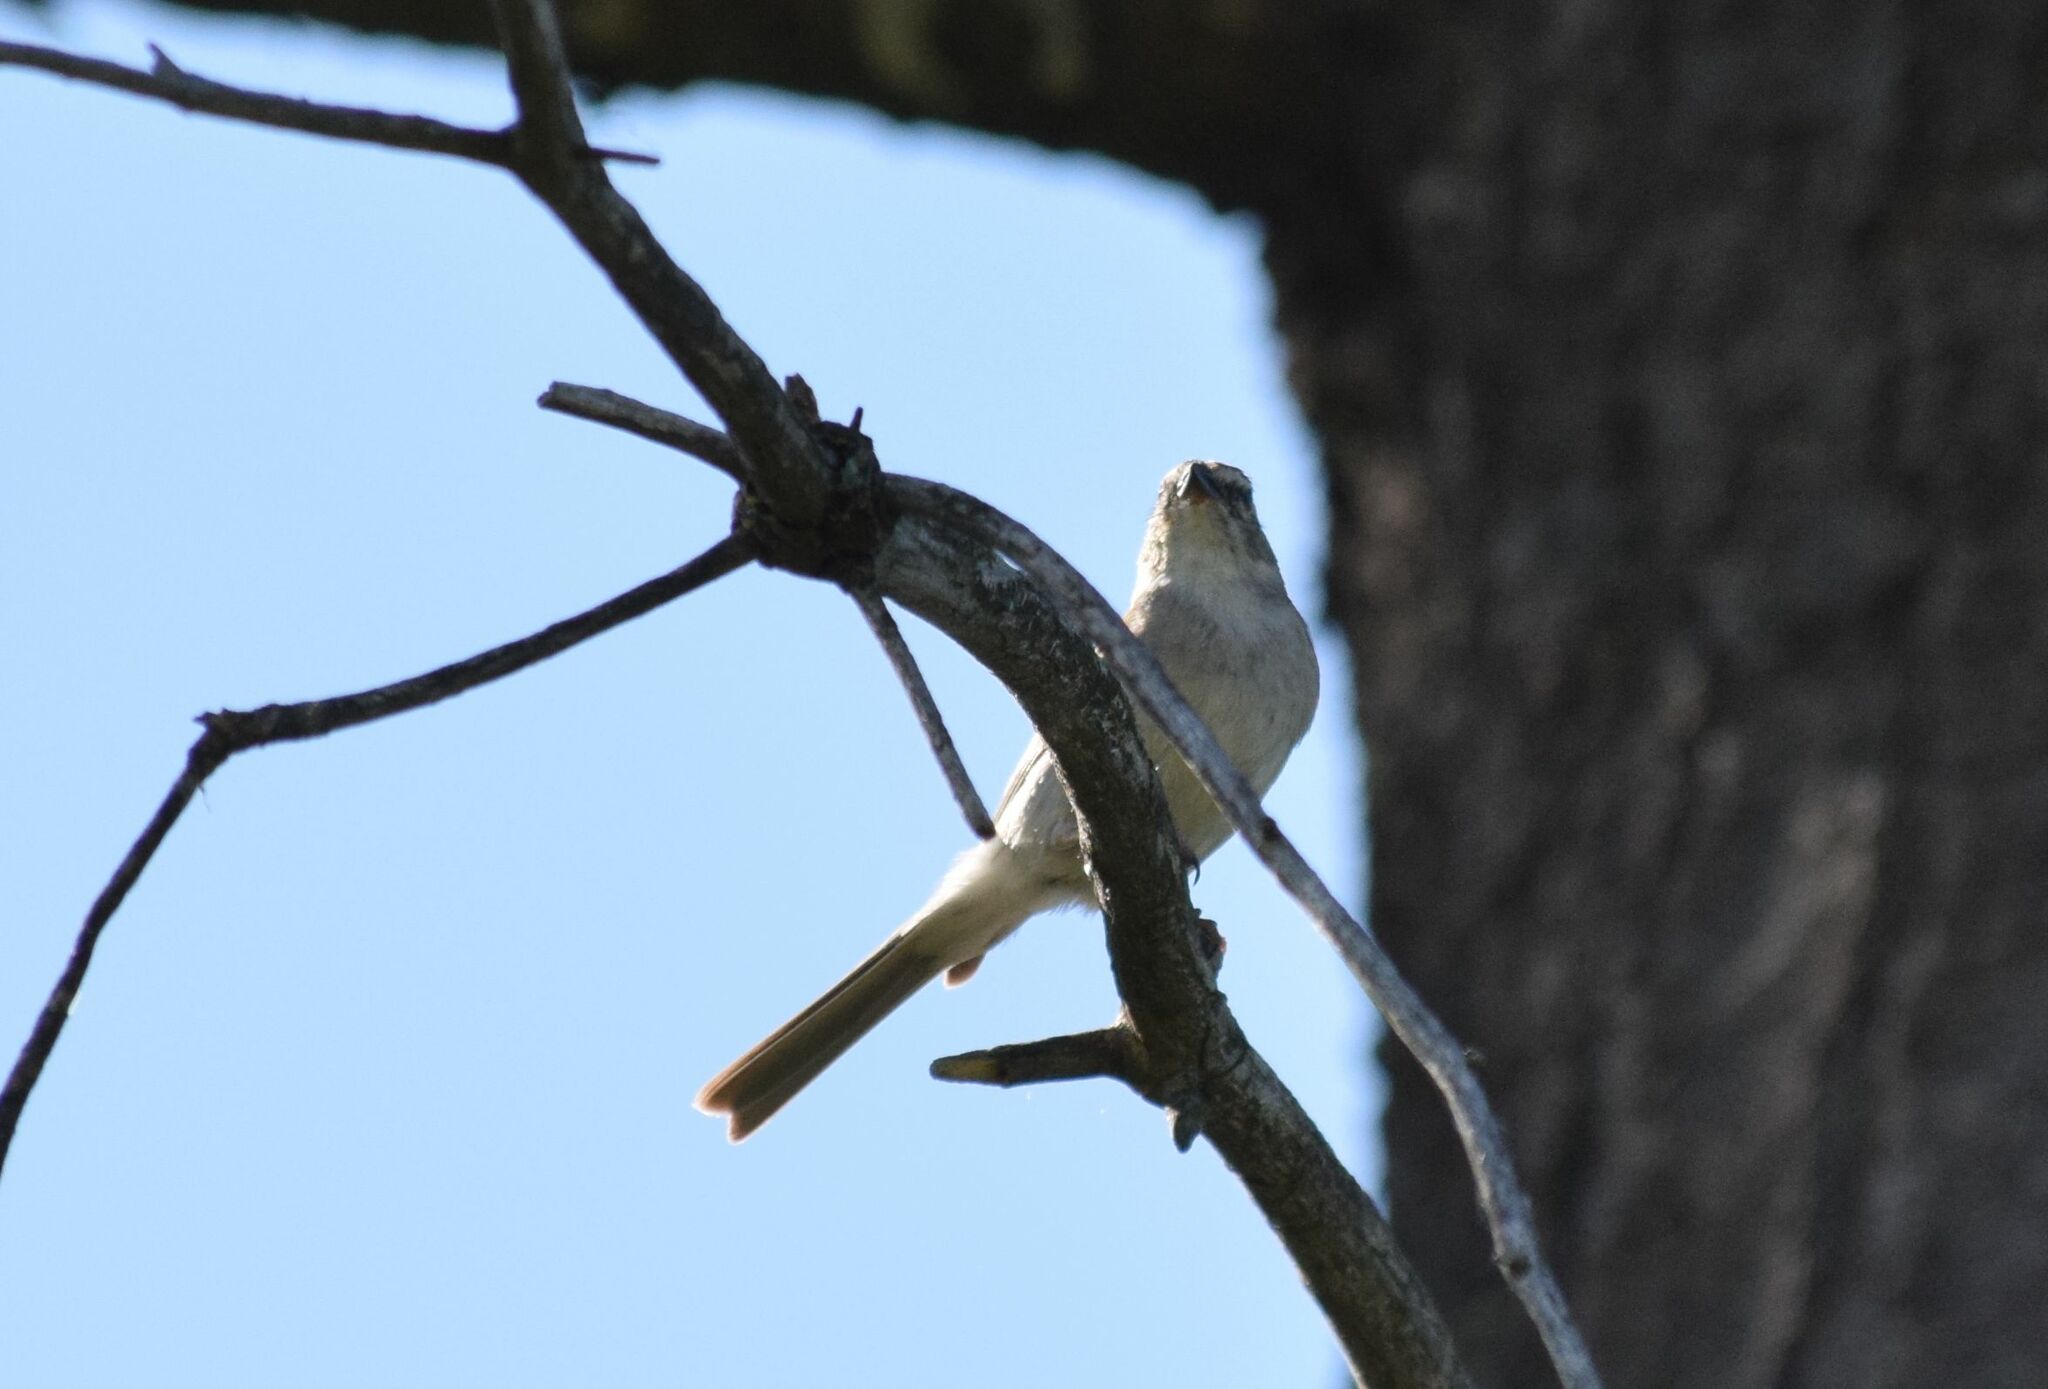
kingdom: Animalia
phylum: Chordata
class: Aves
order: Passeriformes
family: Passerellidae
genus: Spizella
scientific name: Spizella passerina
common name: Chipping sparrow
